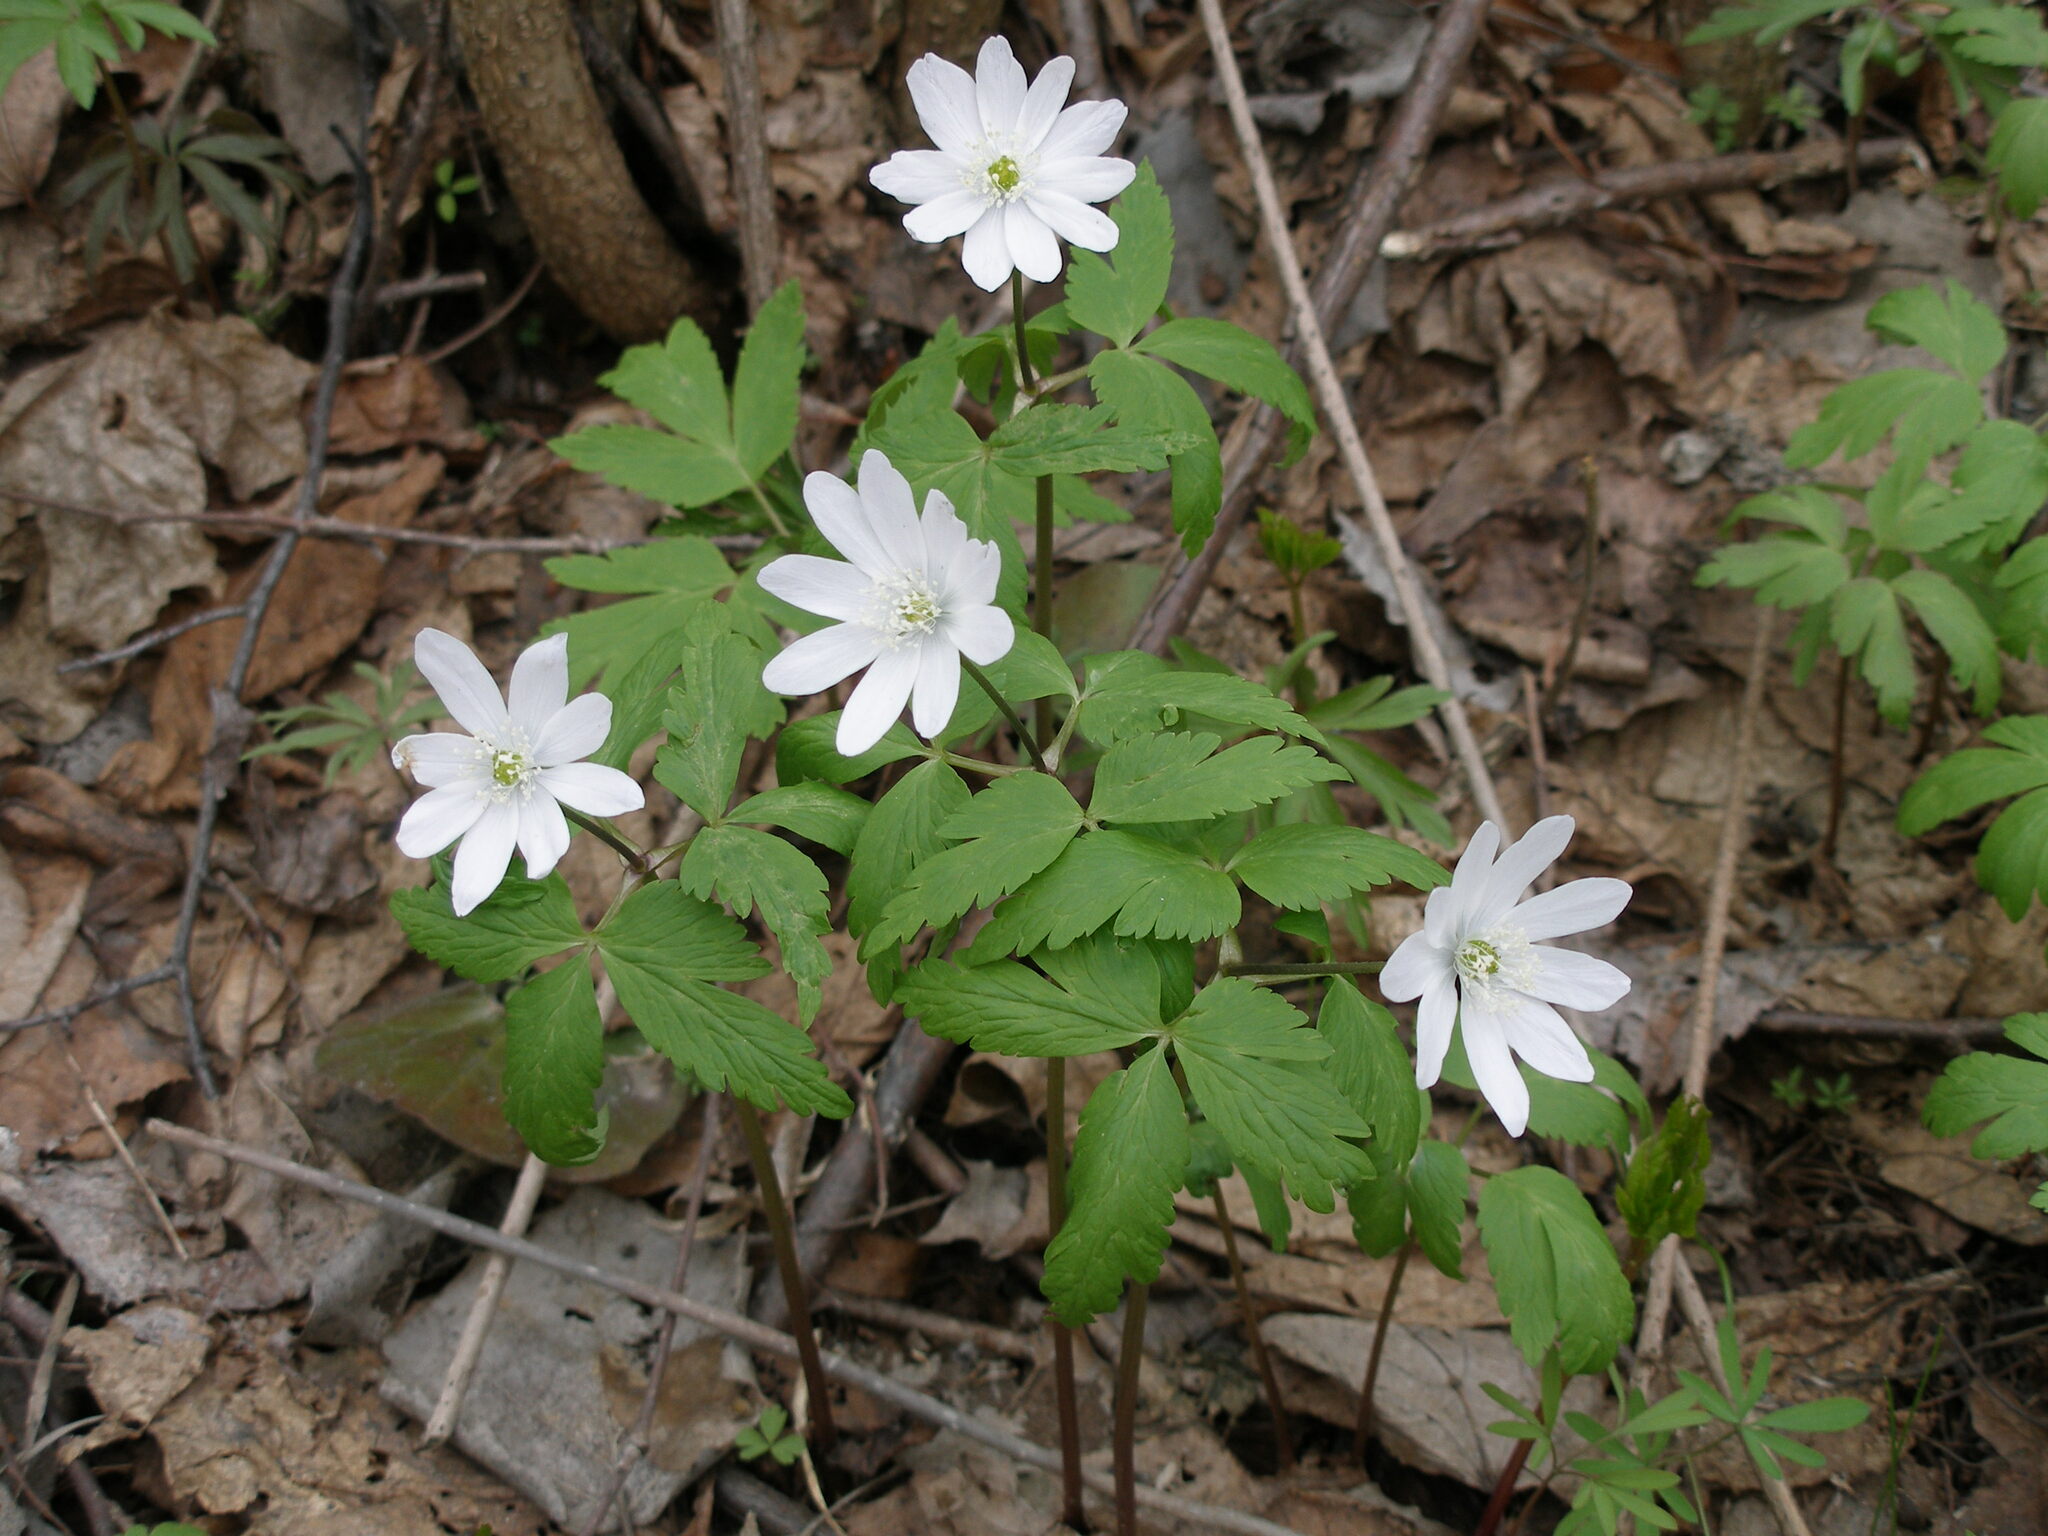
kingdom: Plantae
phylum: Tracheophyta
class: Magnoliopsida
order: Ranunculales
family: Ranunculaceae
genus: Anemone
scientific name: Anemone altaica
